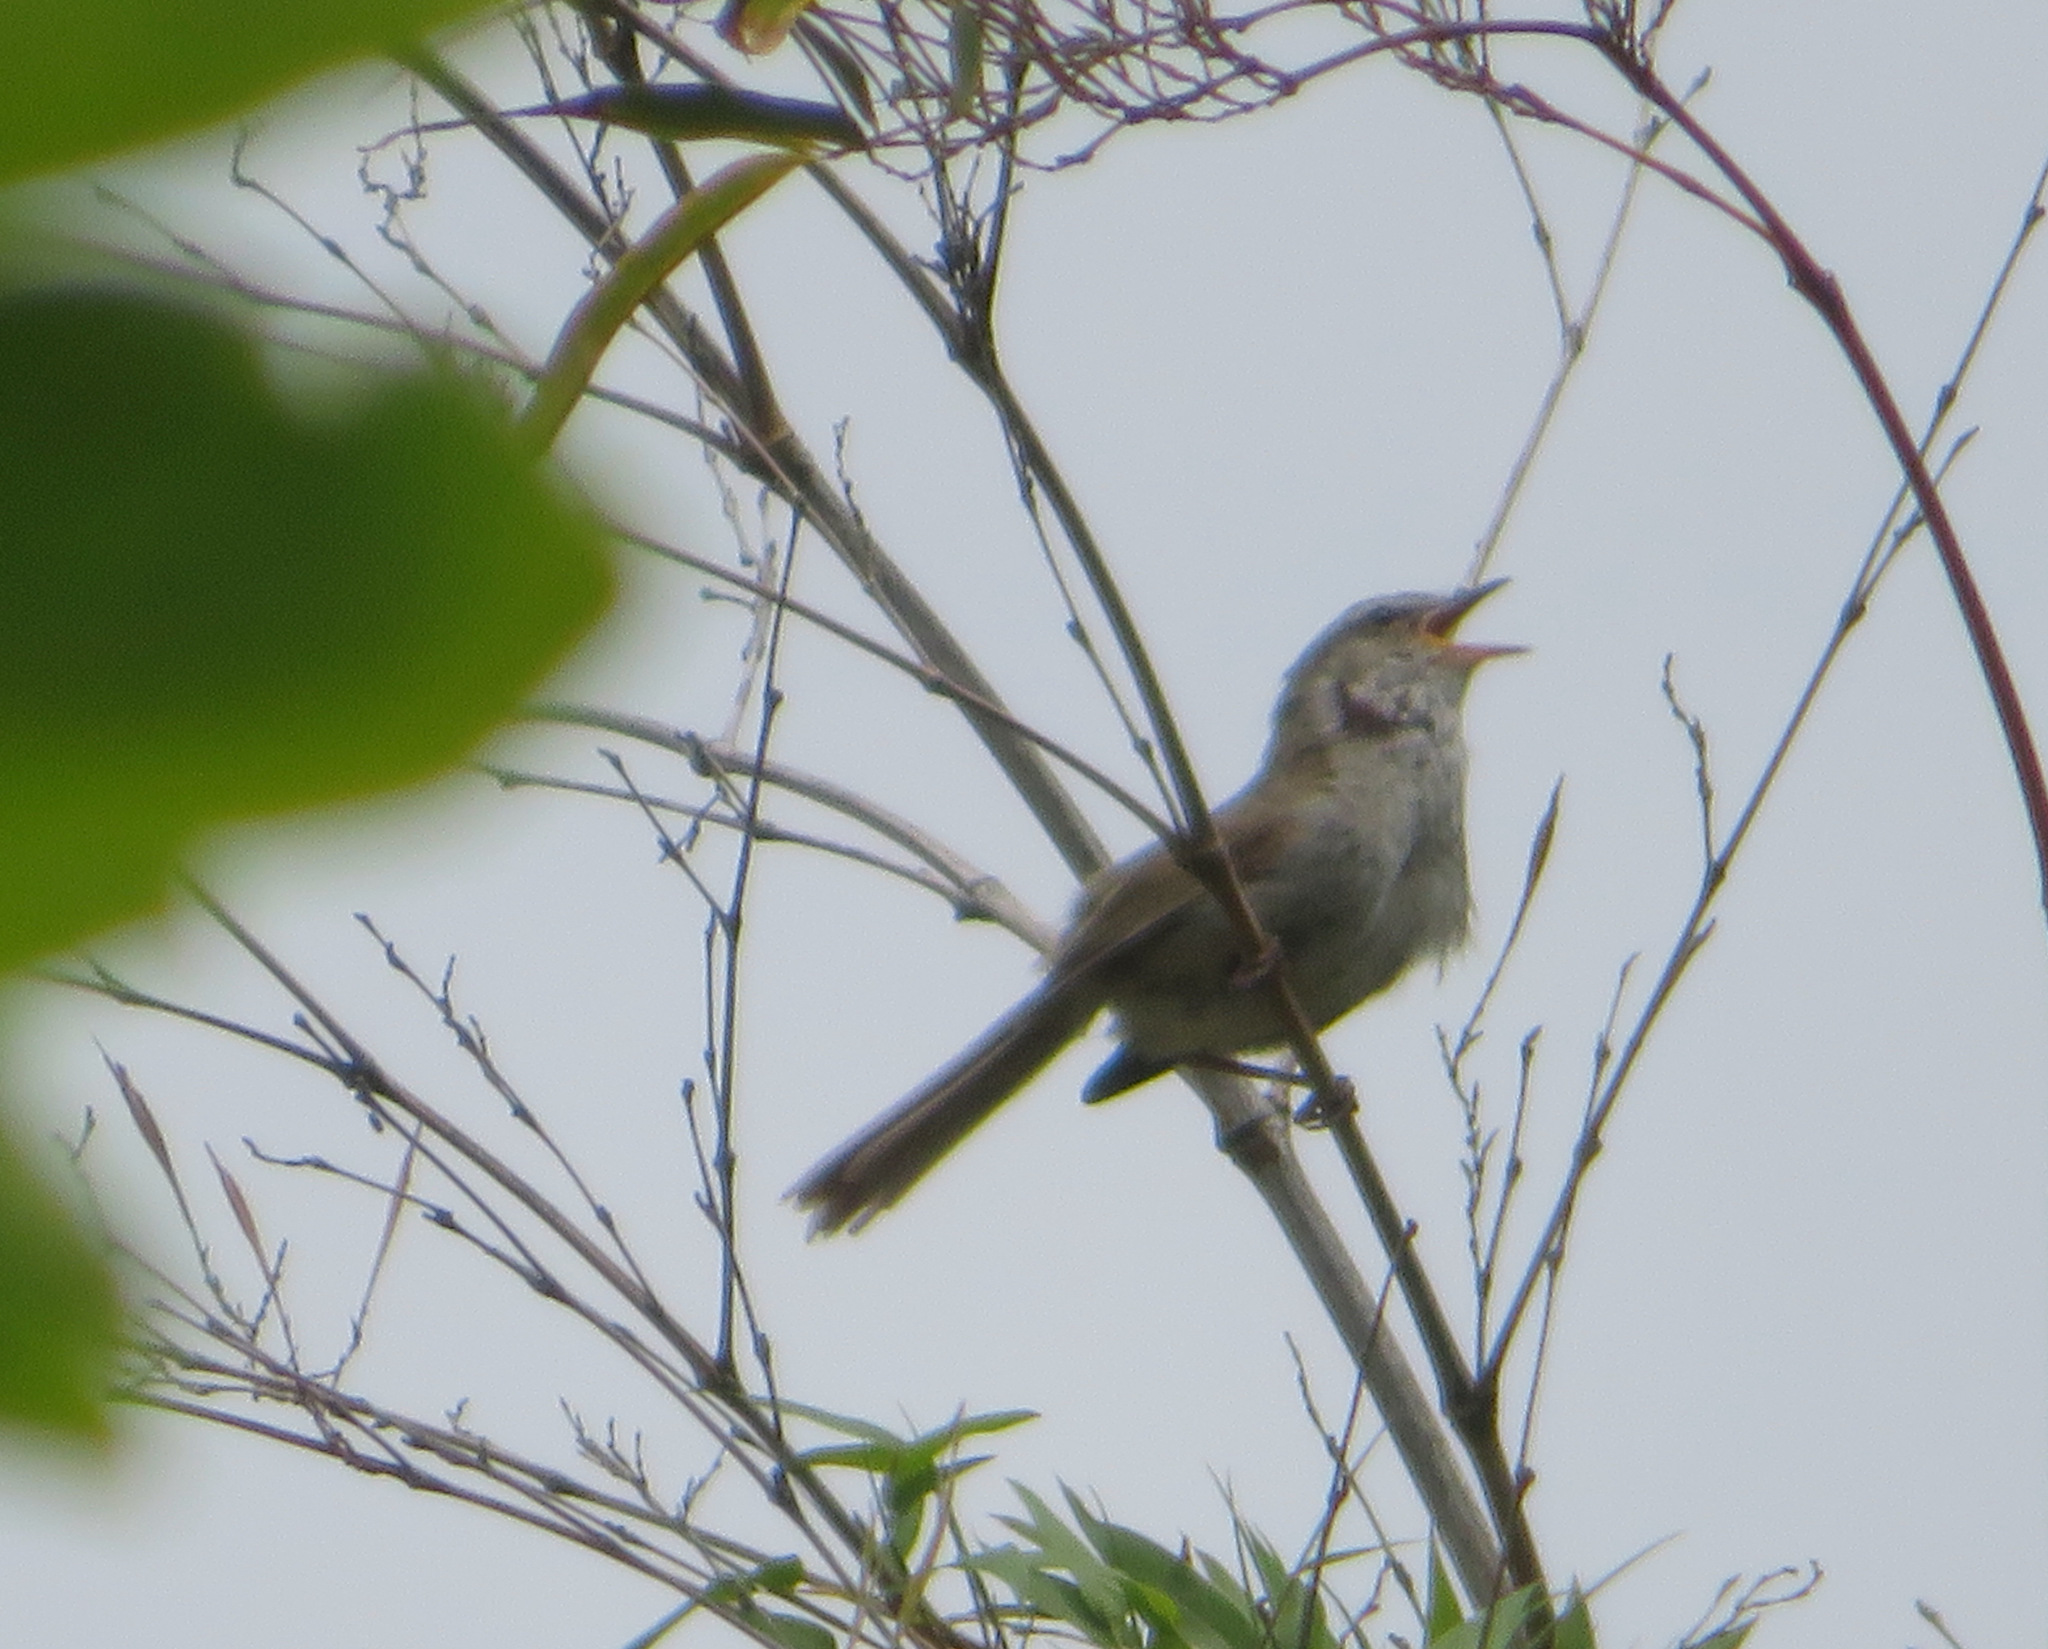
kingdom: Animalia
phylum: Chordata
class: Aves
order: Passeriformes
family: Cettiidae
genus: Horornis
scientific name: Horornis diphone
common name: Japanese bush warbler
